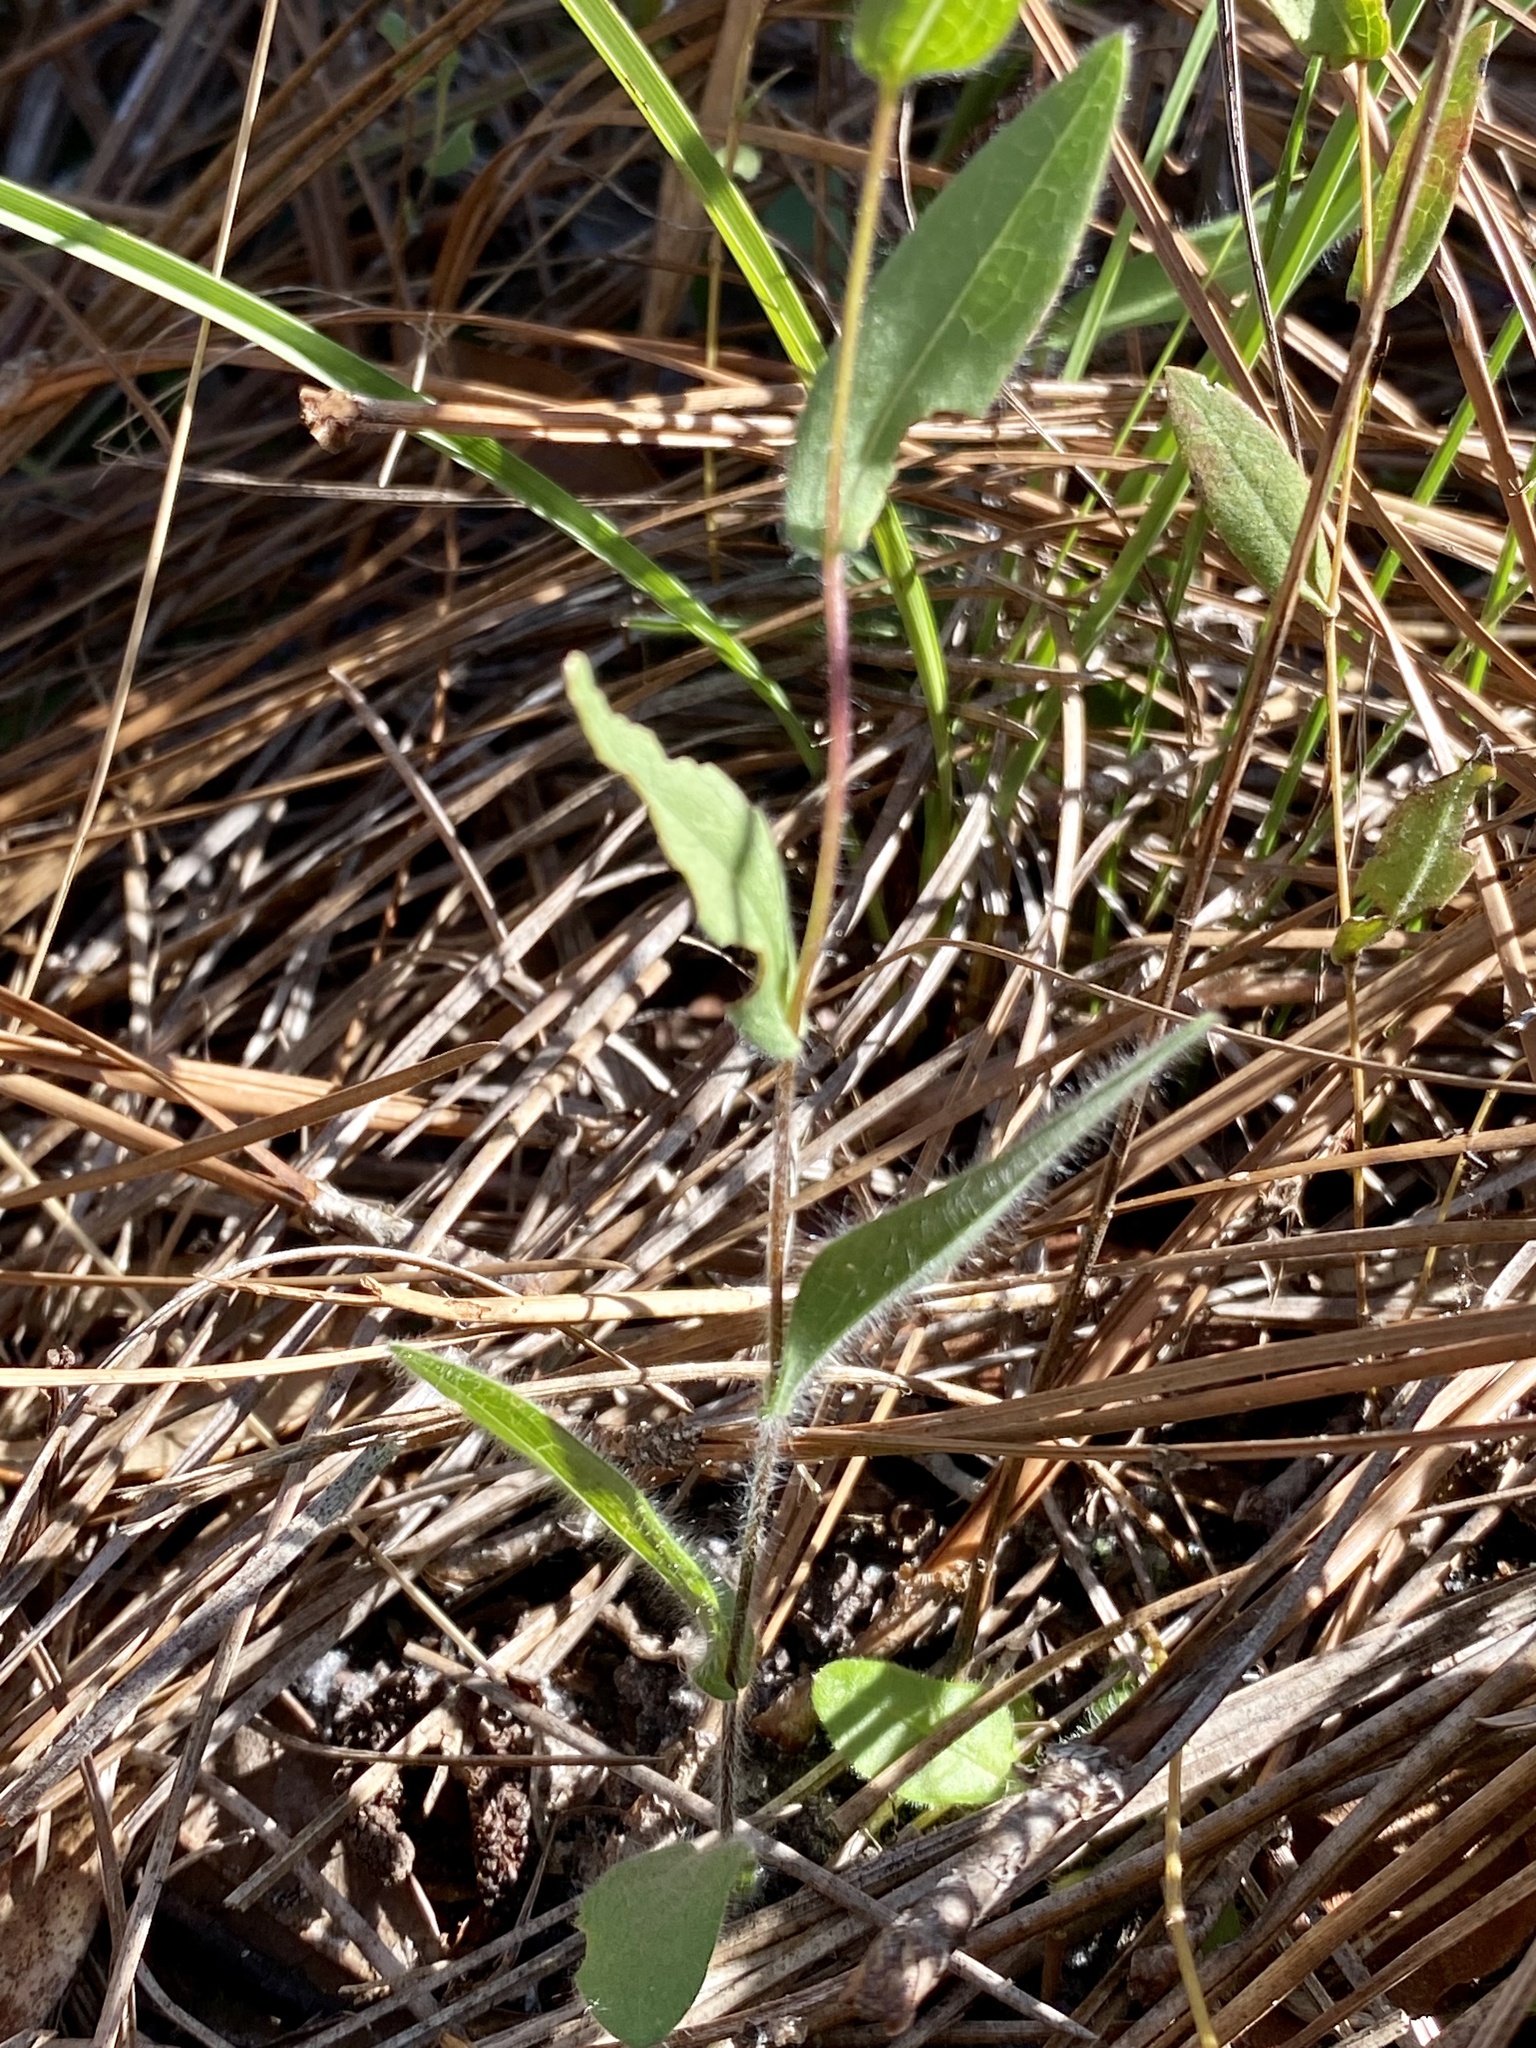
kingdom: Plantae
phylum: Tracheophyta
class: Magnoliopsida
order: Asterales
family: Asteraceae
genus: Symphyotrichum
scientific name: Symphyotrichum concolor
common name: Eastern silver aster
